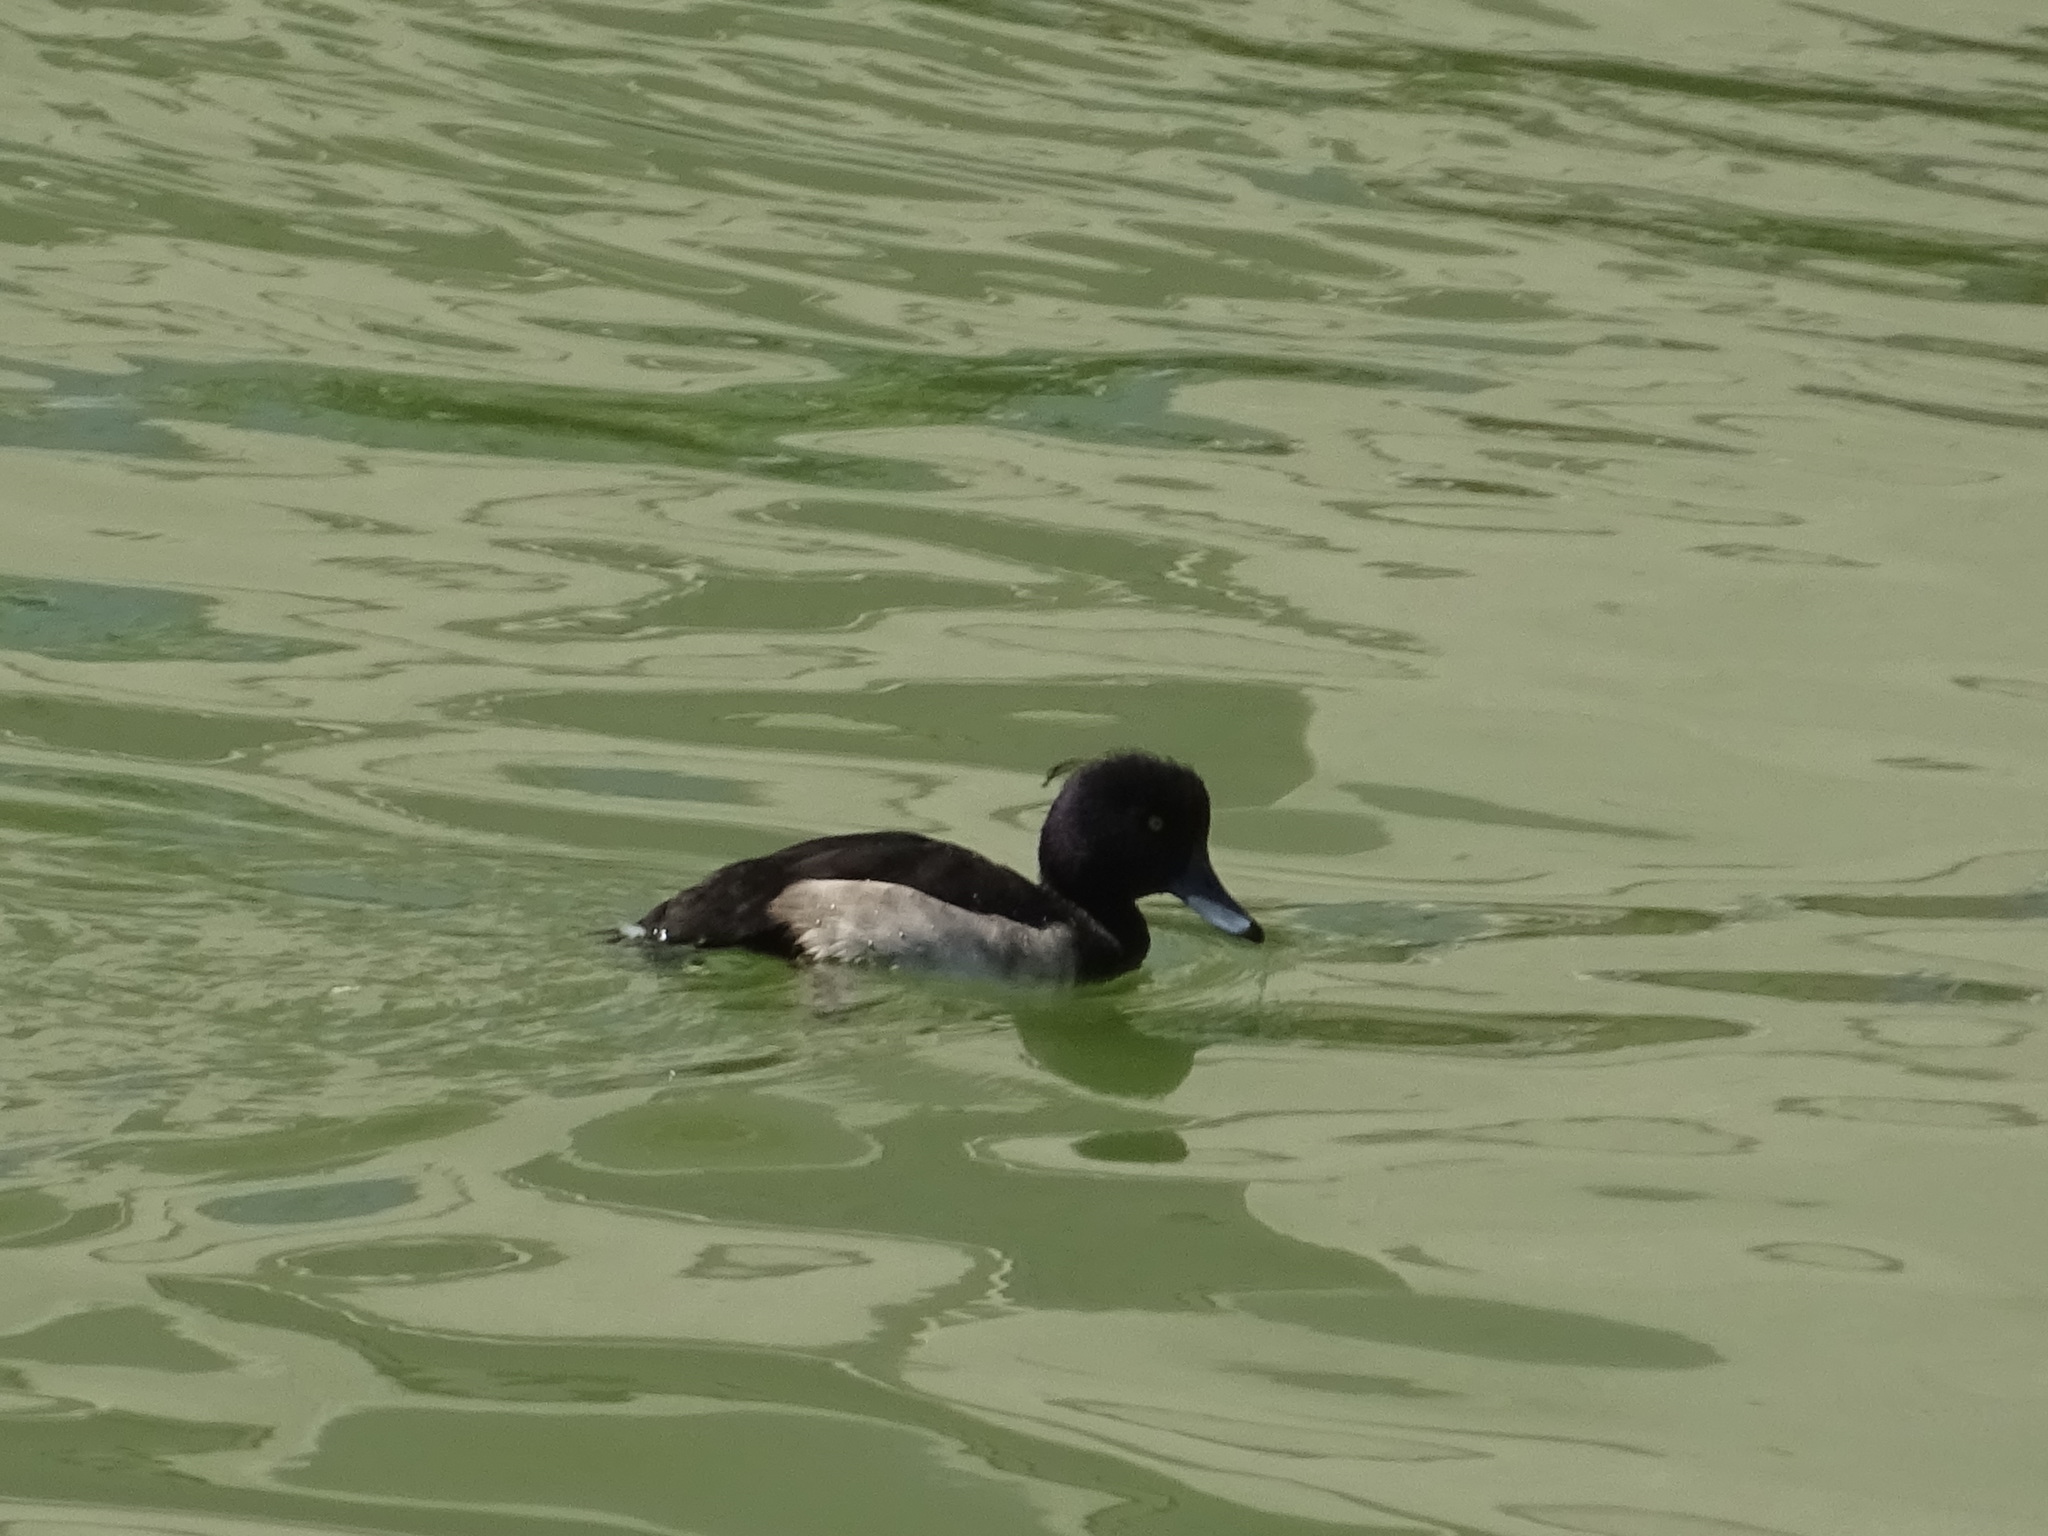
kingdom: Animalia
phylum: Chordata
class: Aves
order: Anseriformes
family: Anatidae
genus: Aythya
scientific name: Aythya fuligula
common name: Tufted duck
